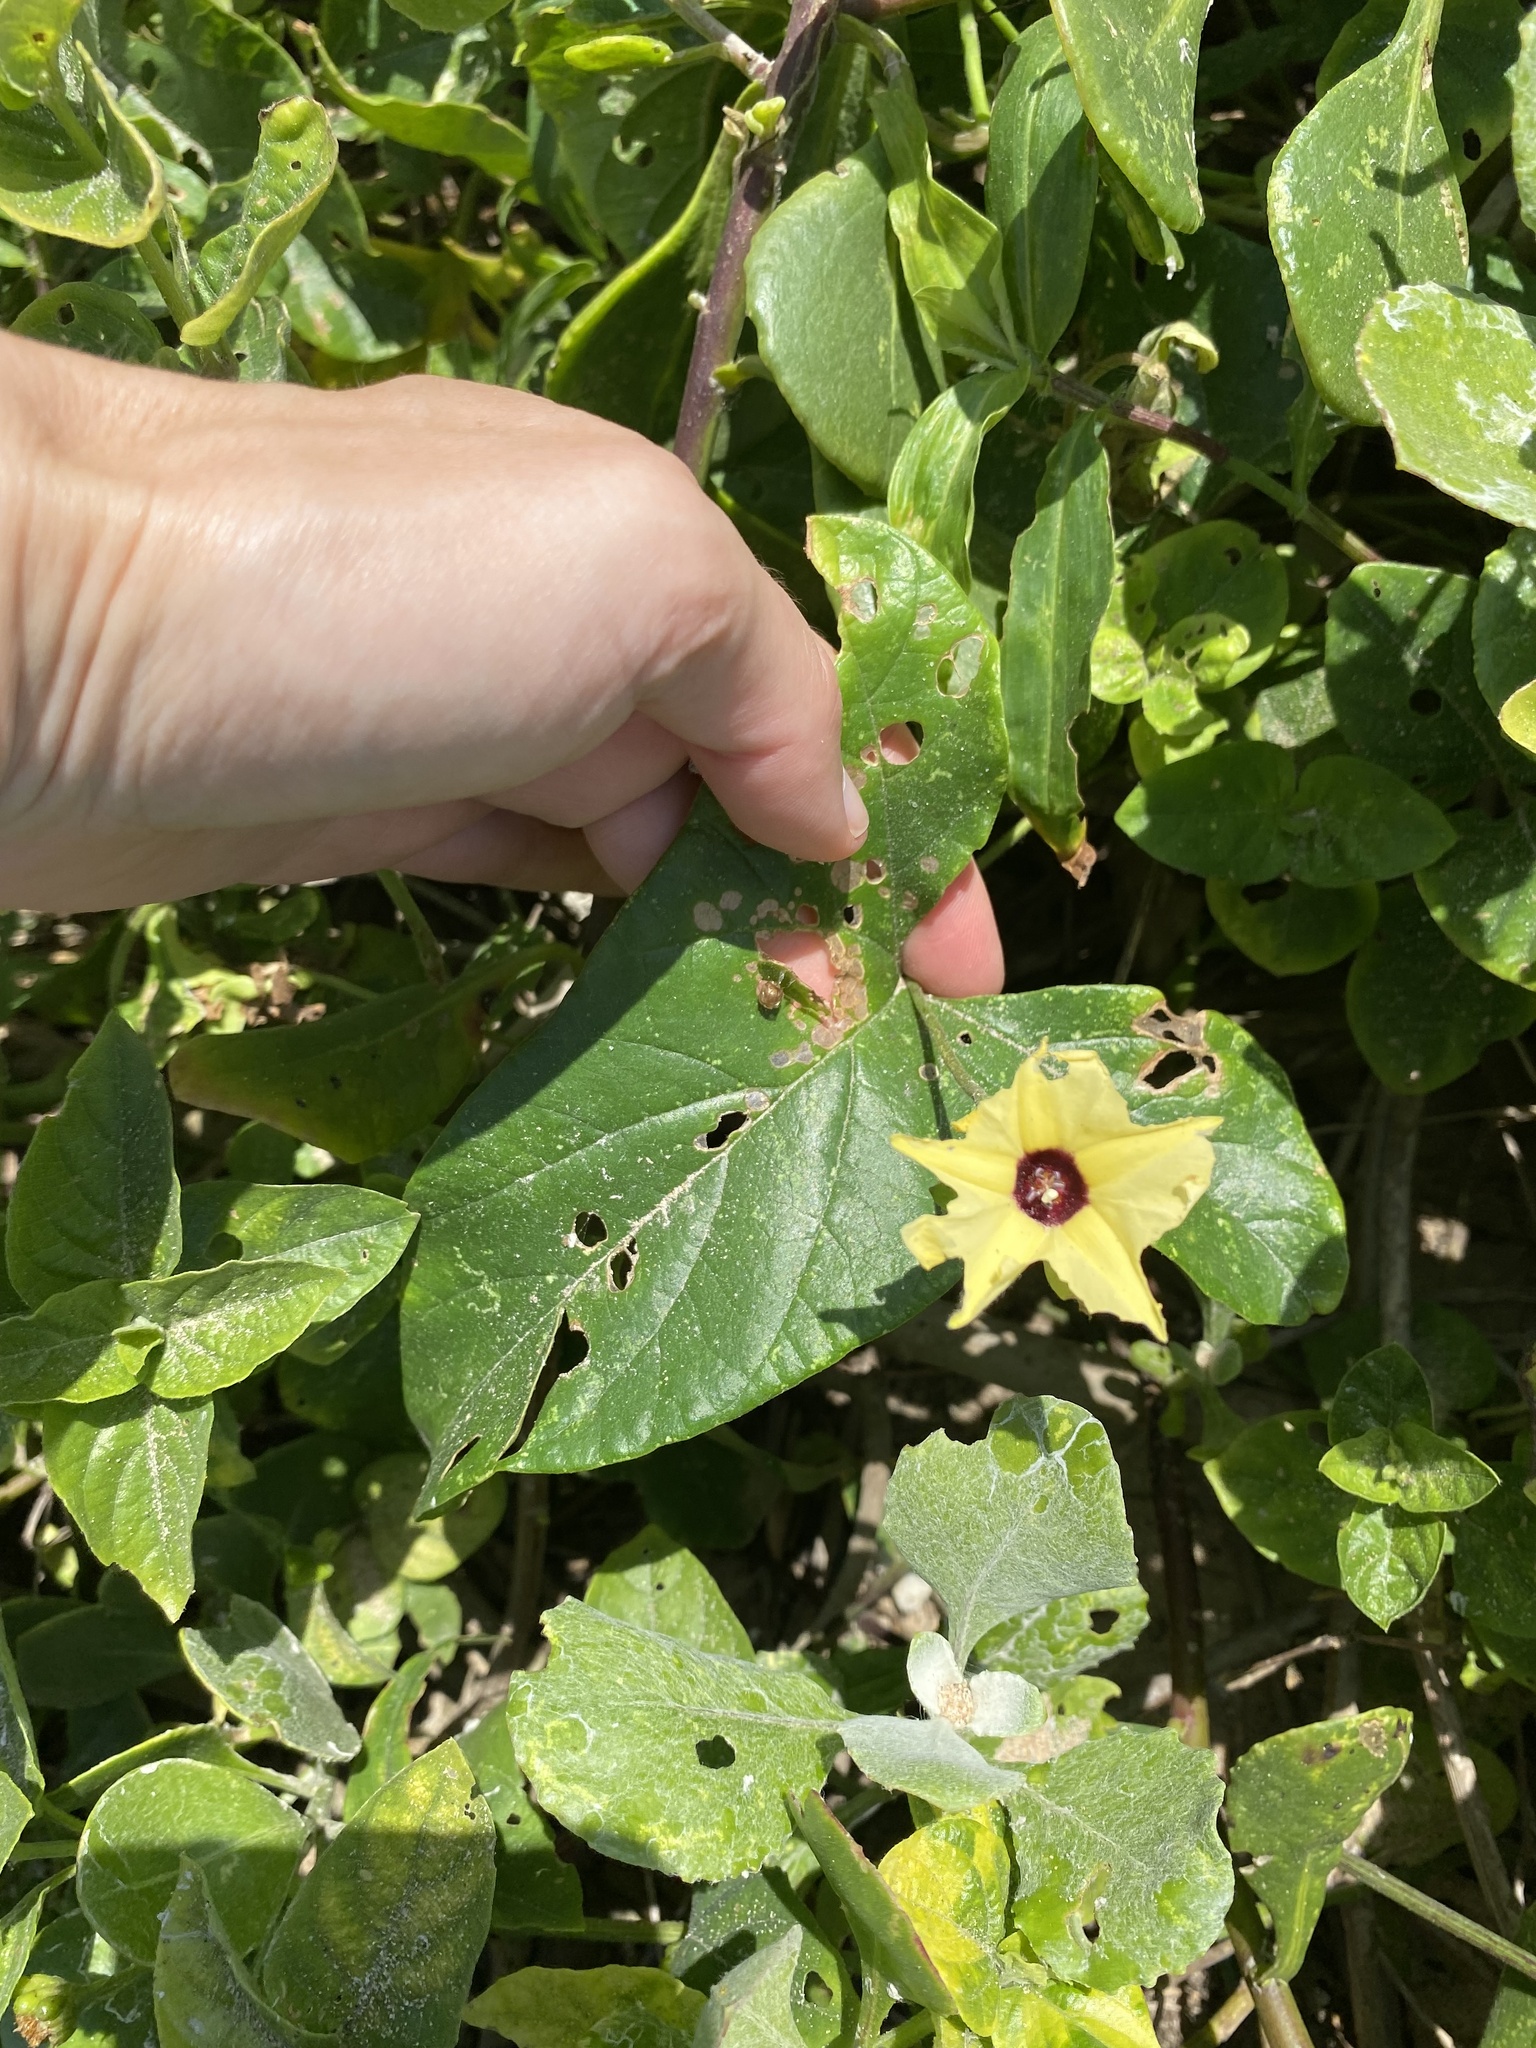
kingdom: Plantae
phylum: Tracheophyta
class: Magnoliopsida
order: Solanales
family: Convolvulaceae
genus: Hewittia
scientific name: Hewittia malabarica
